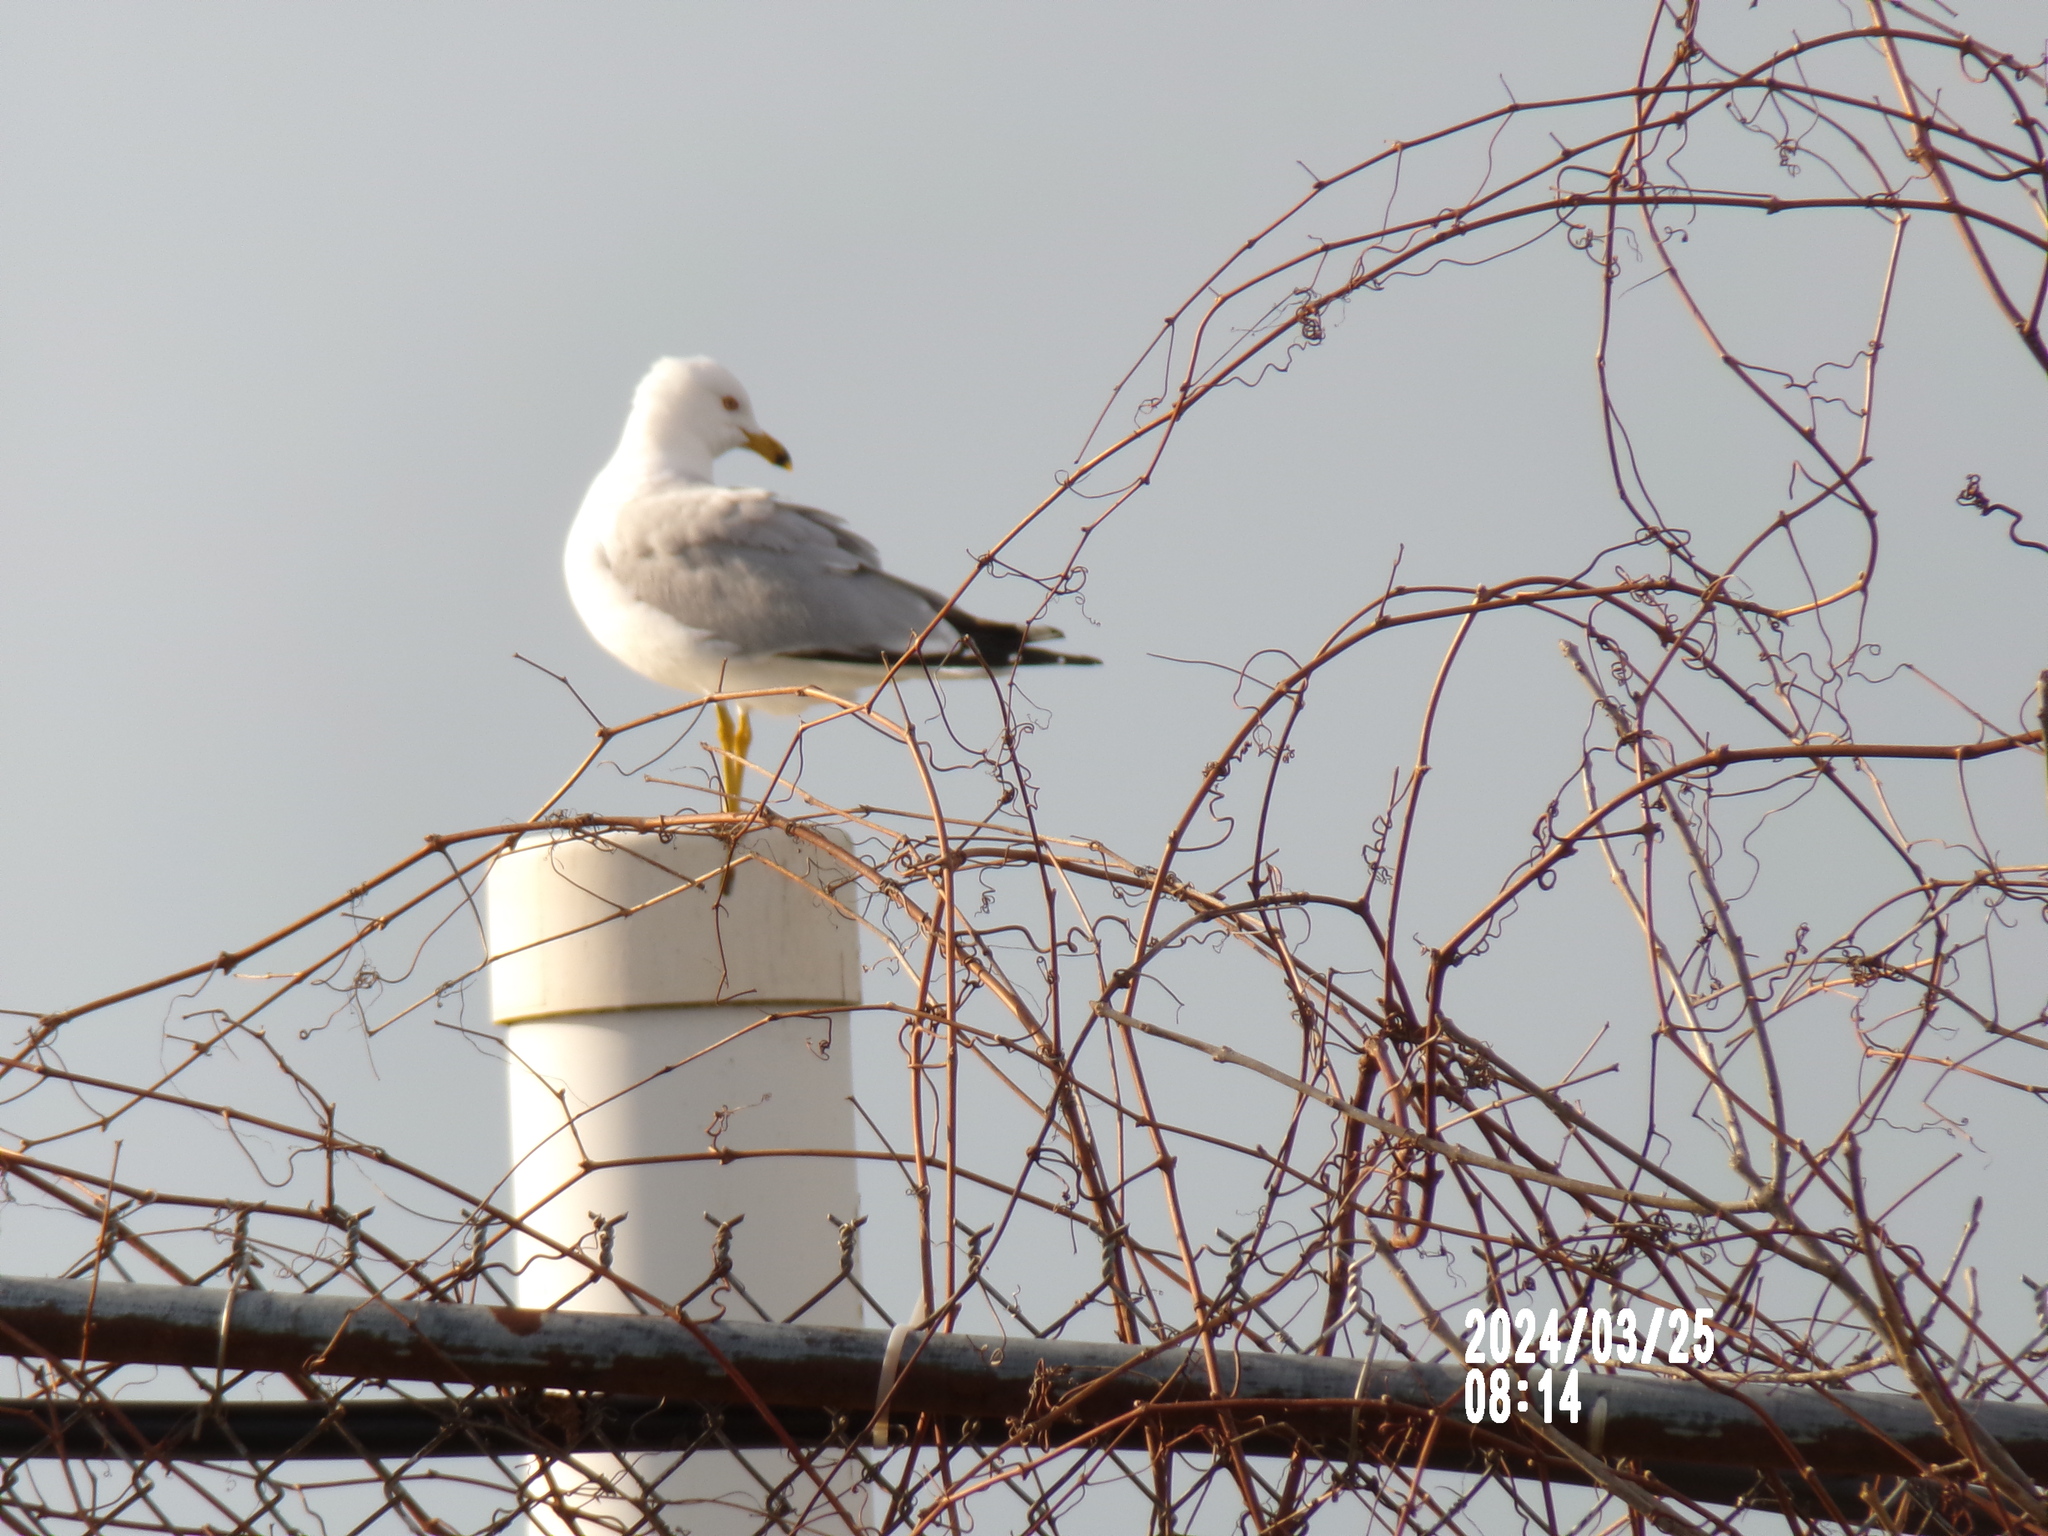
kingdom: Animalia
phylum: Chordata
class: Aves
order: Charadriiformes
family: Laridae
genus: Larus
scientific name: Larus delawarensis
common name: Ring-billed gull
